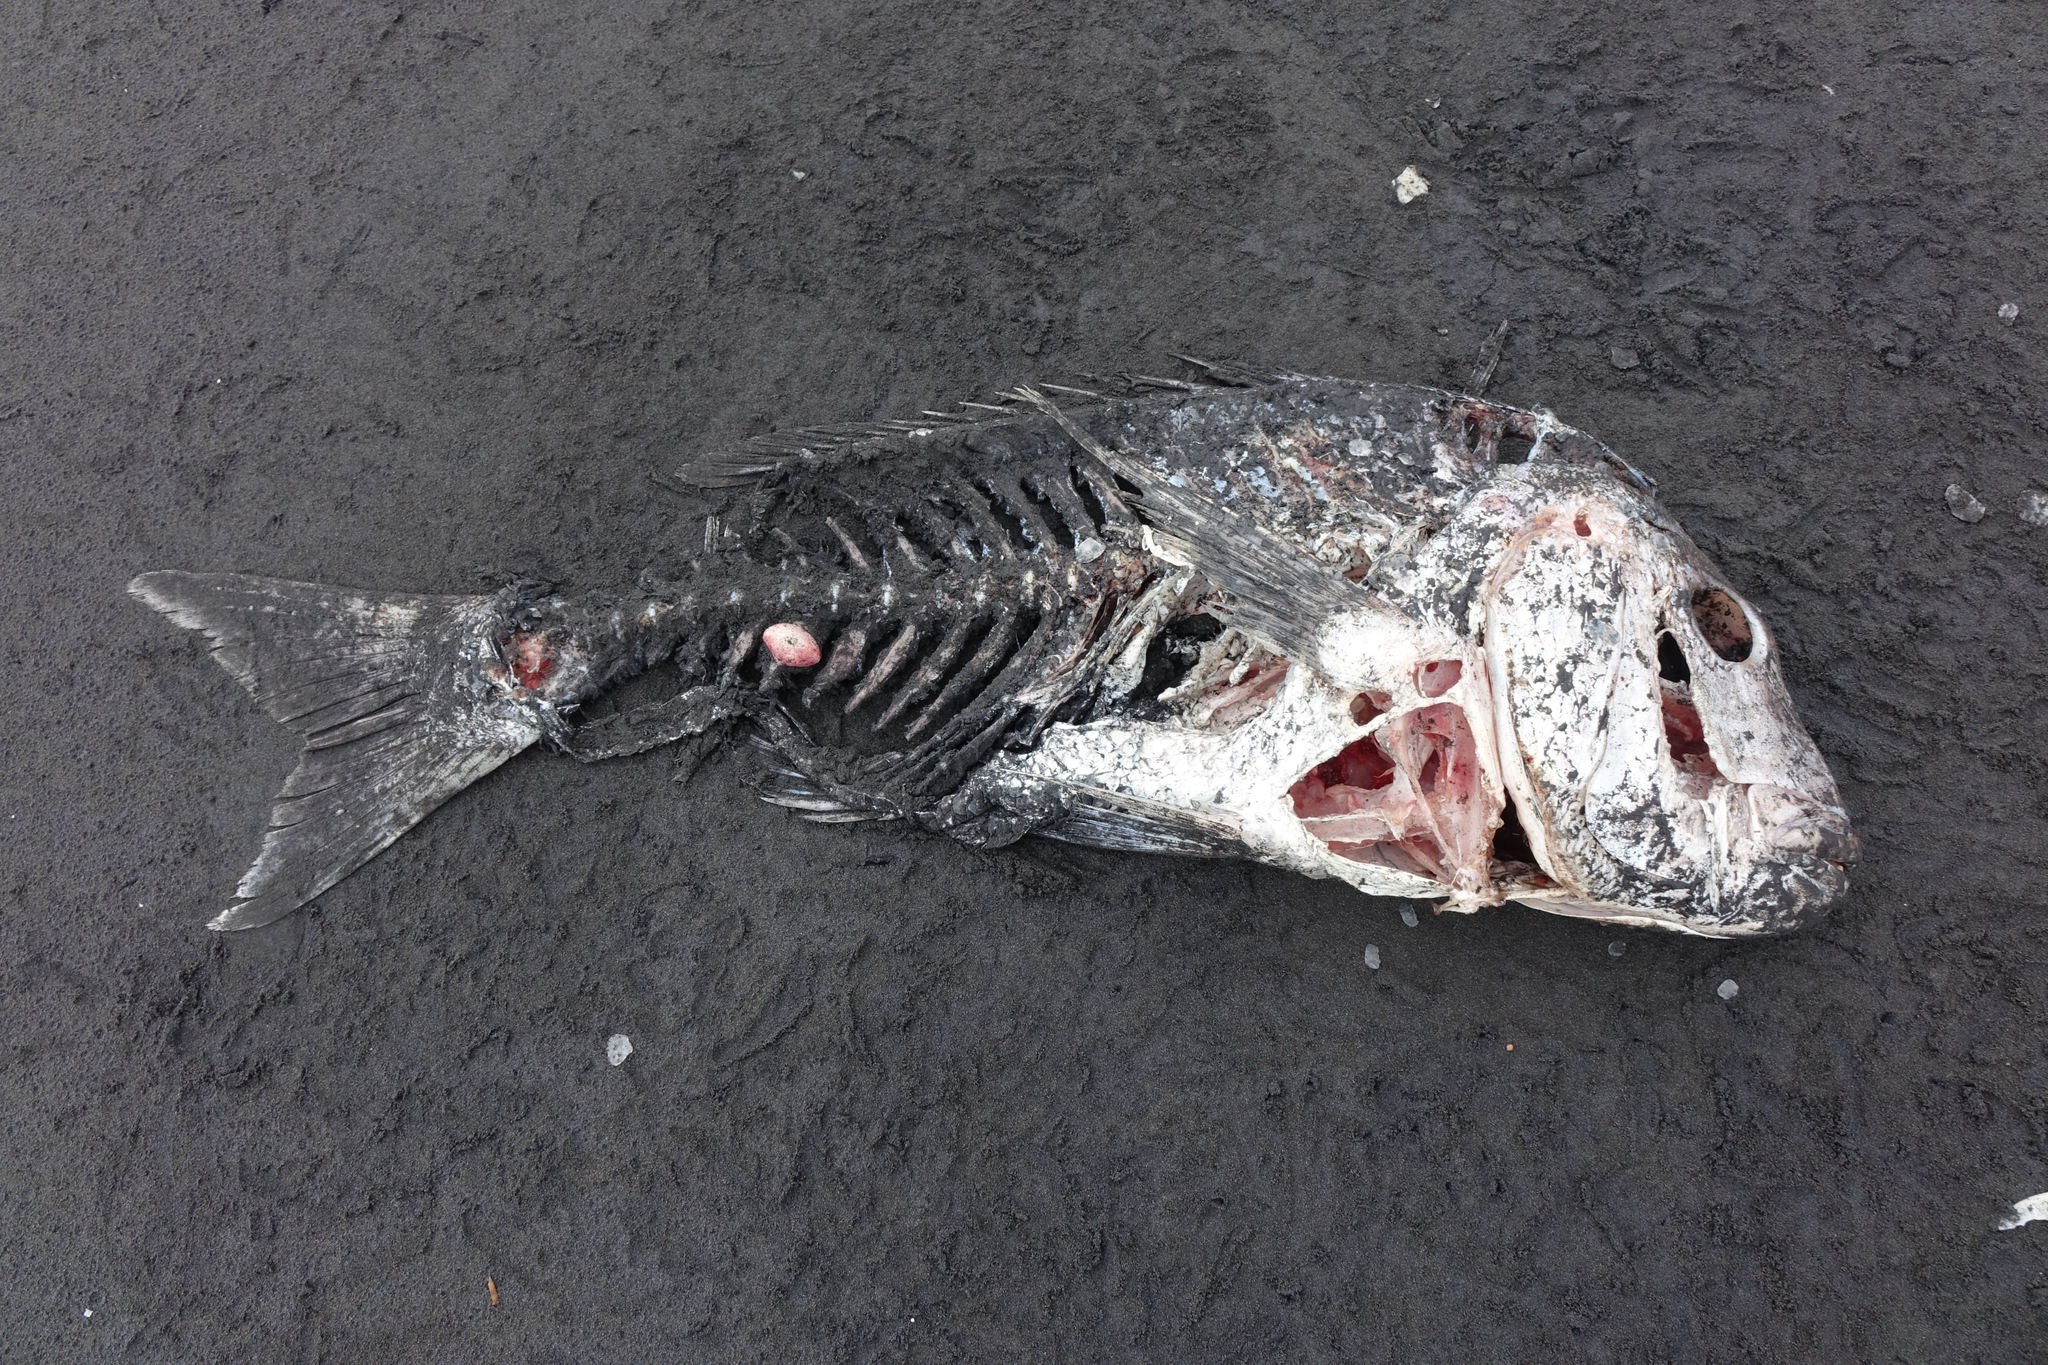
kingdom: Animalia
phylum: Chordata
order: Perciformes
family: Sparidae
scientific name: Sparidae
